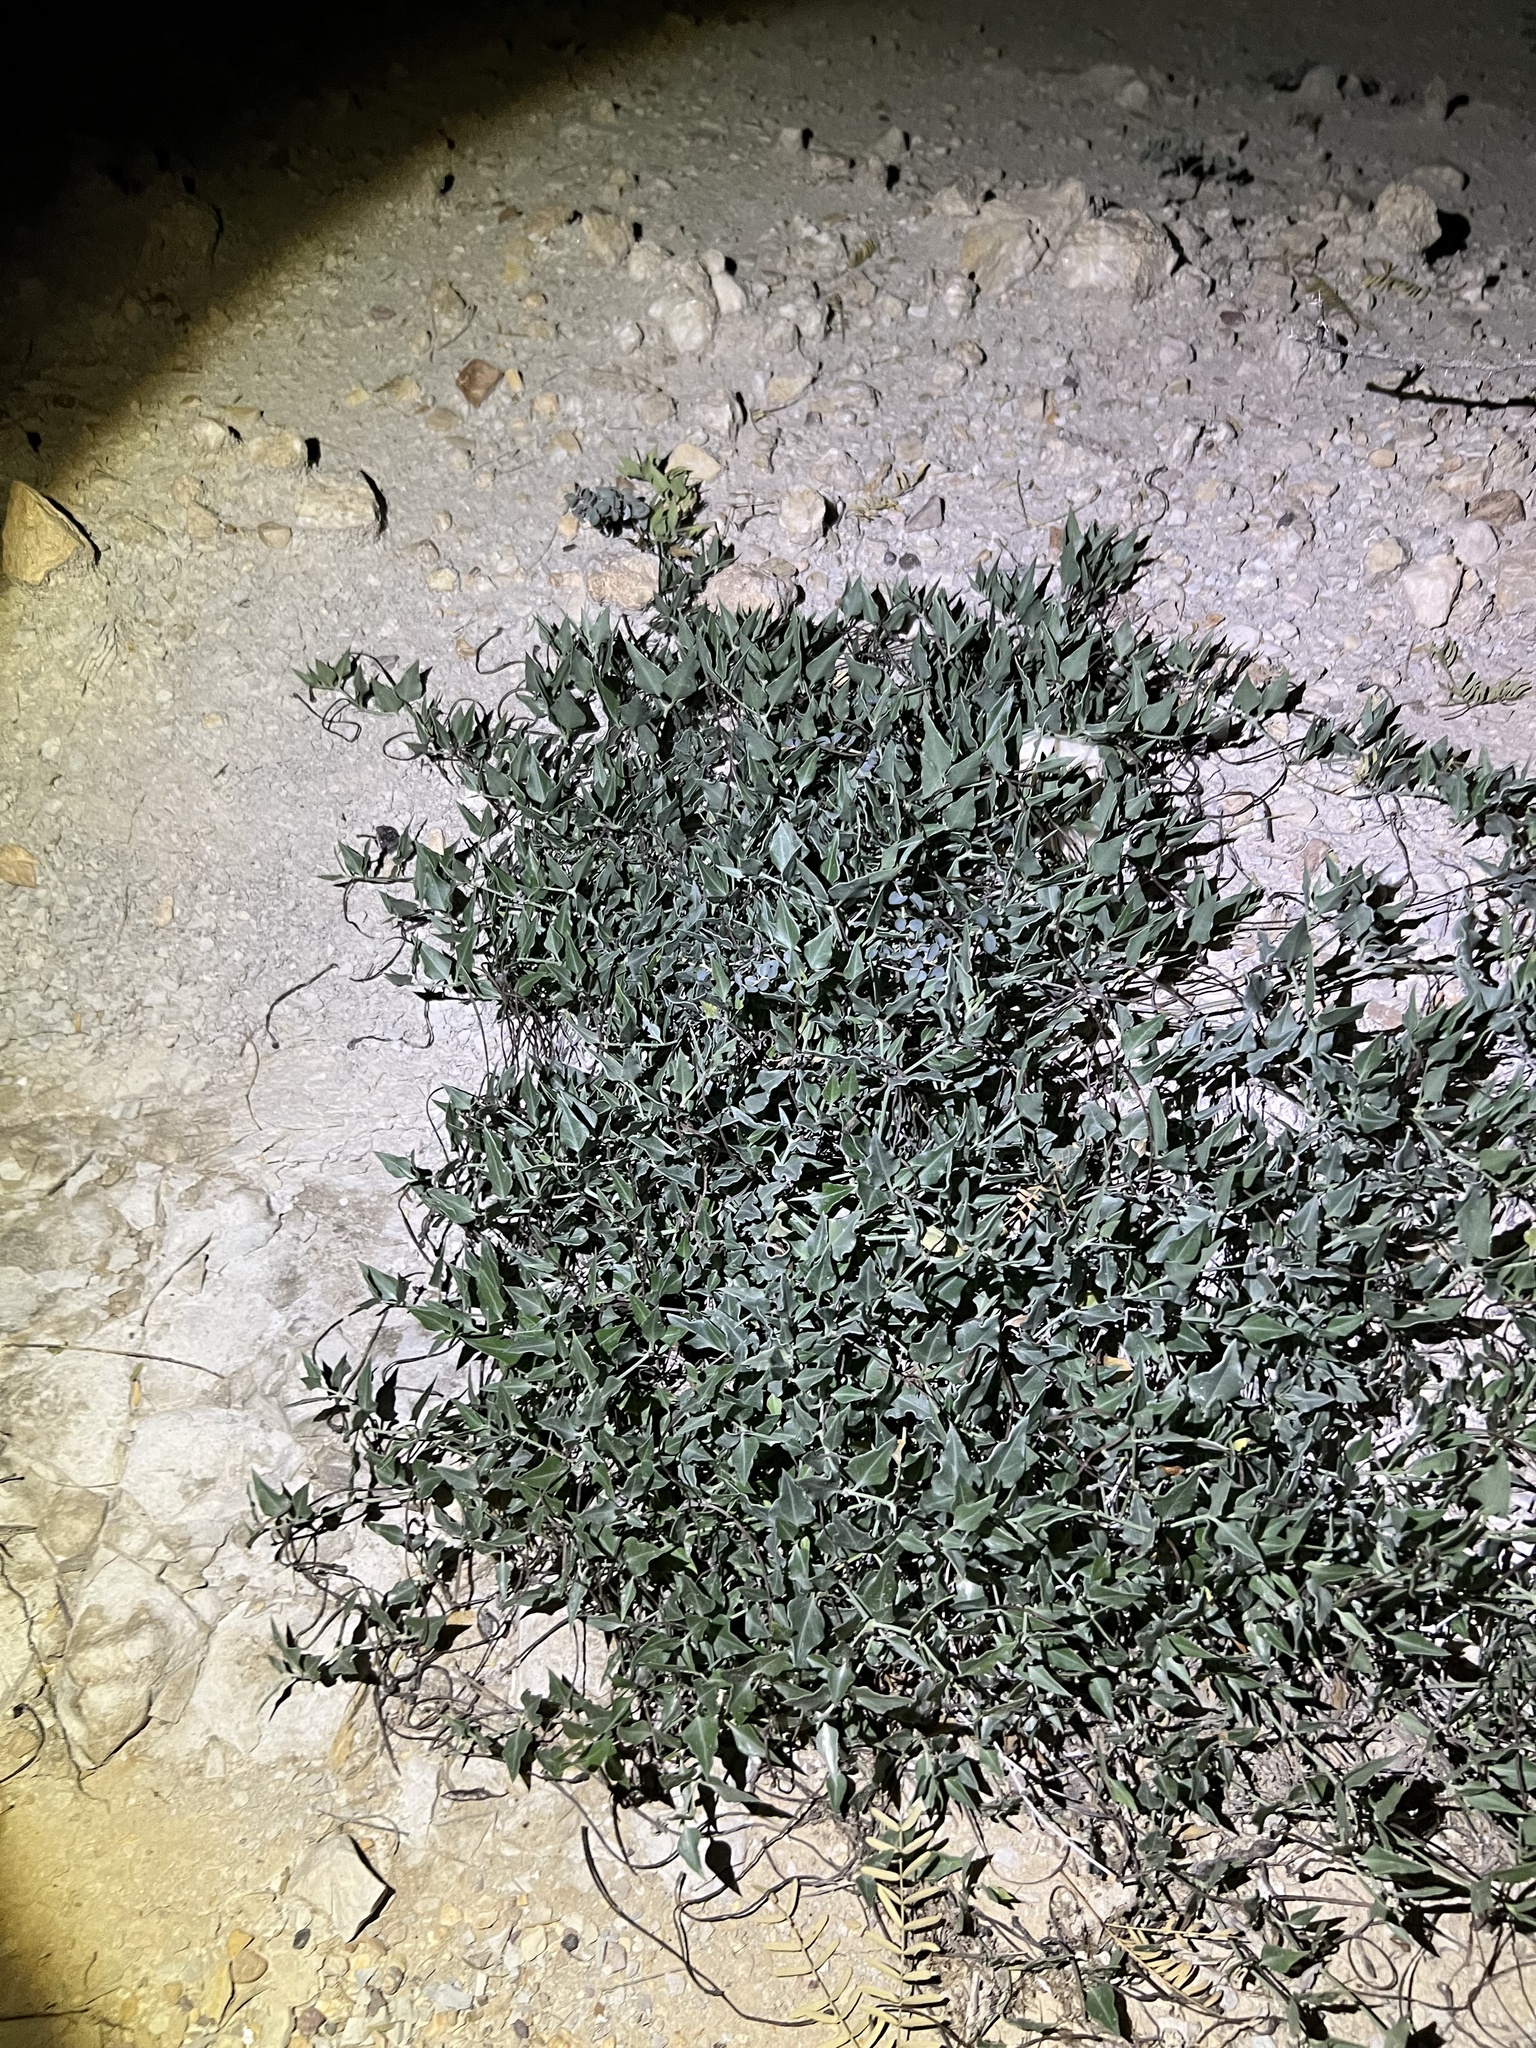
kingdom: Plantae
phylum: Tracheophyta
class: Magnoliopsida
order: Caryophyllales
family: Nyctaginaceae
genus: Acleisanthes
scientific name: Acleisanthes longiflora
